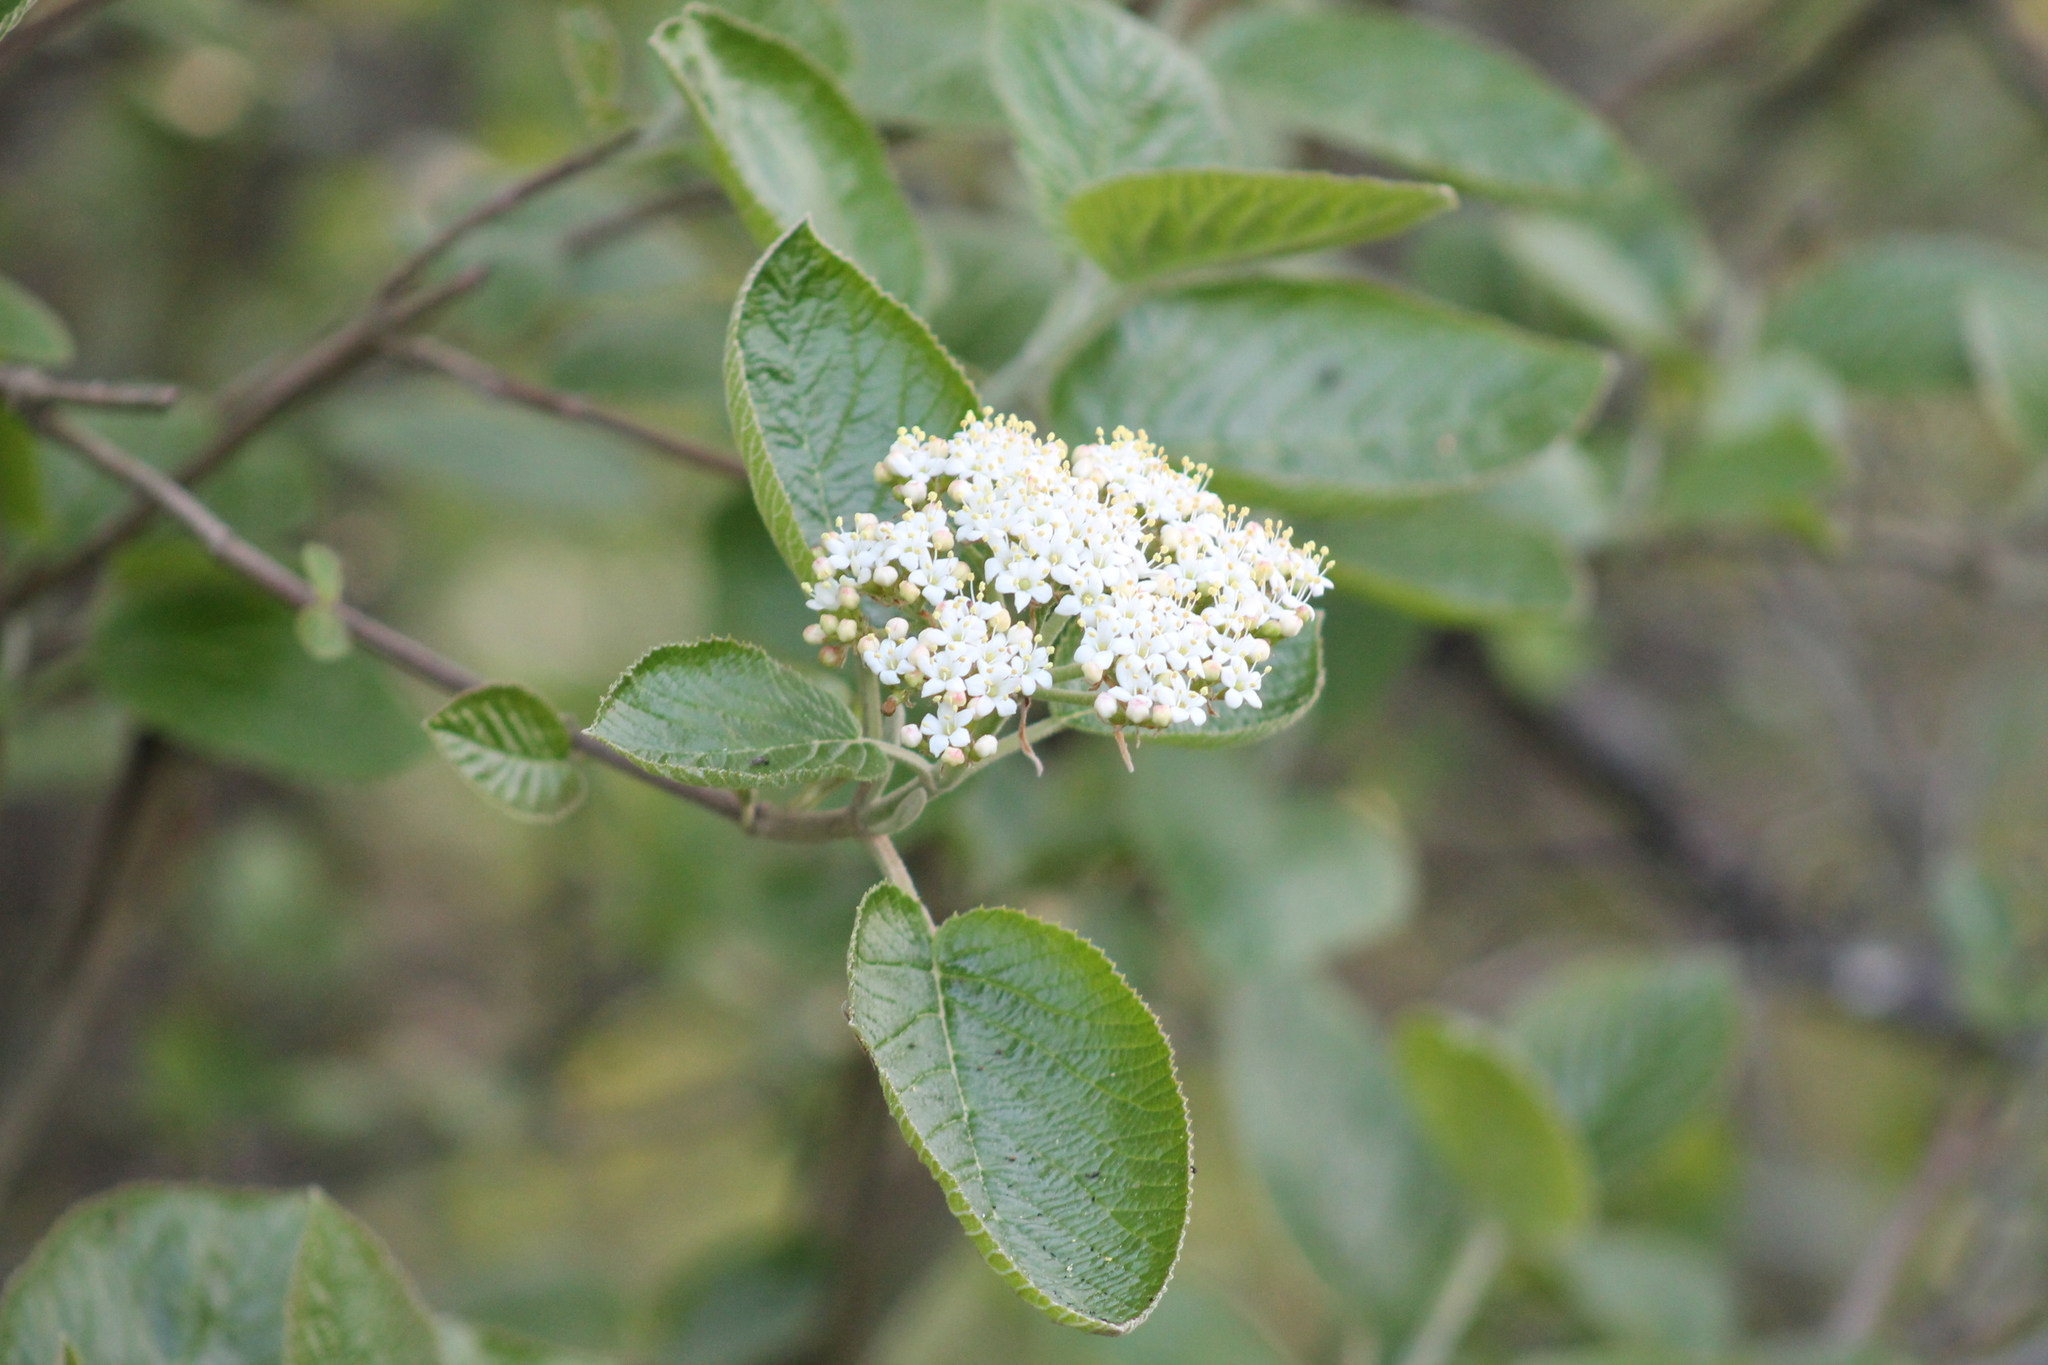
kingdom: Plantae
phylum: Tracheophyta
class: Magnoliopsida
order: Dipsacales
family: Viburnaceae
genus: Viburnum
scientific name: Viburnum lantana
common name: Wayfaring tree
